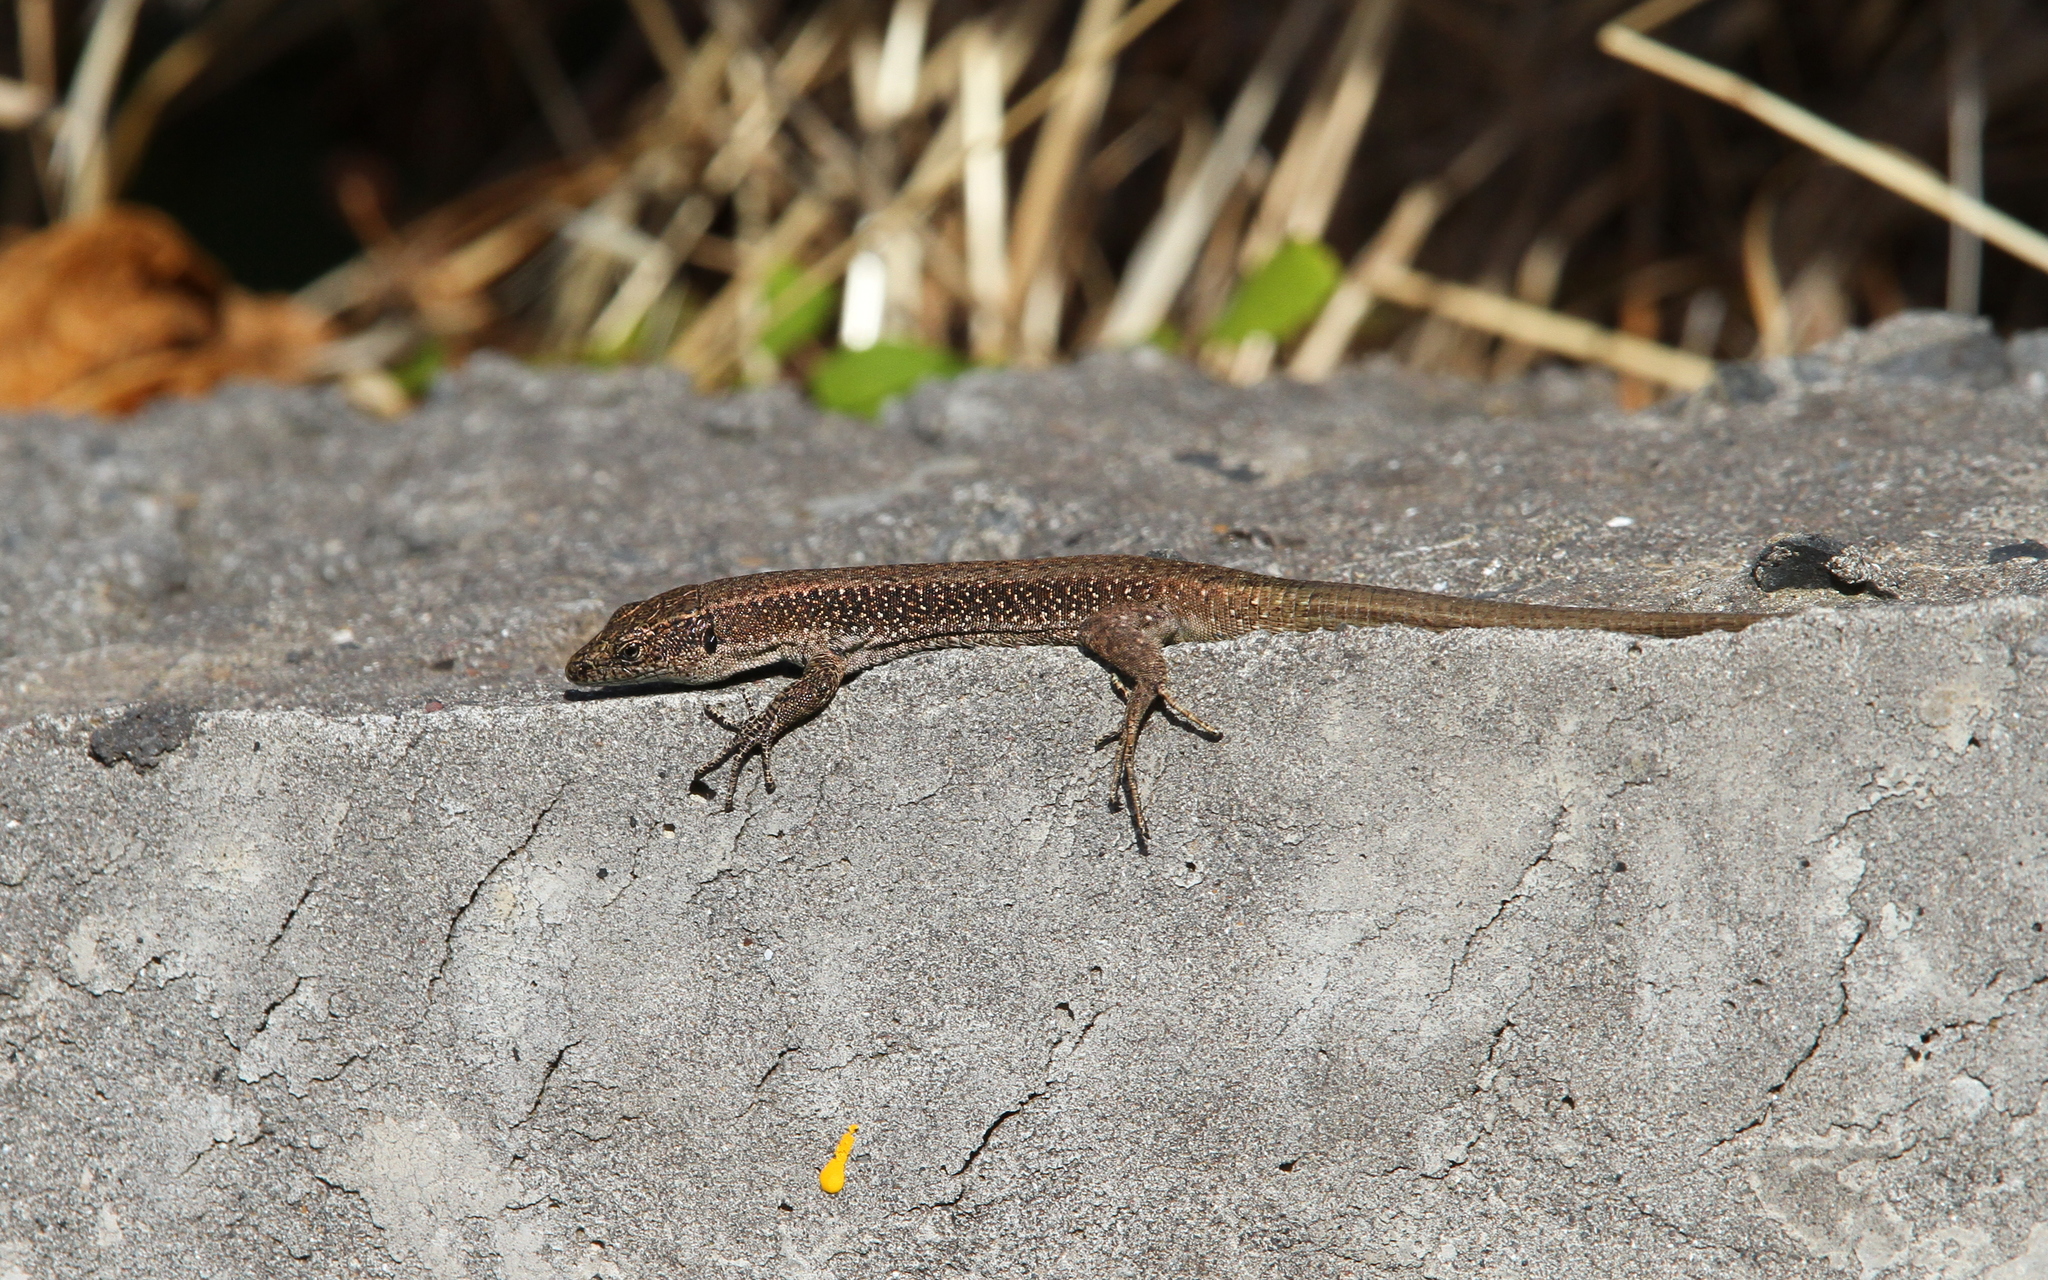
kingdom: Animalia
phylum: Chordata
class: Squamata
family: Lacertidae
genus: Teira
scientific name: Teira dugesii
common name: Madeira lizard
